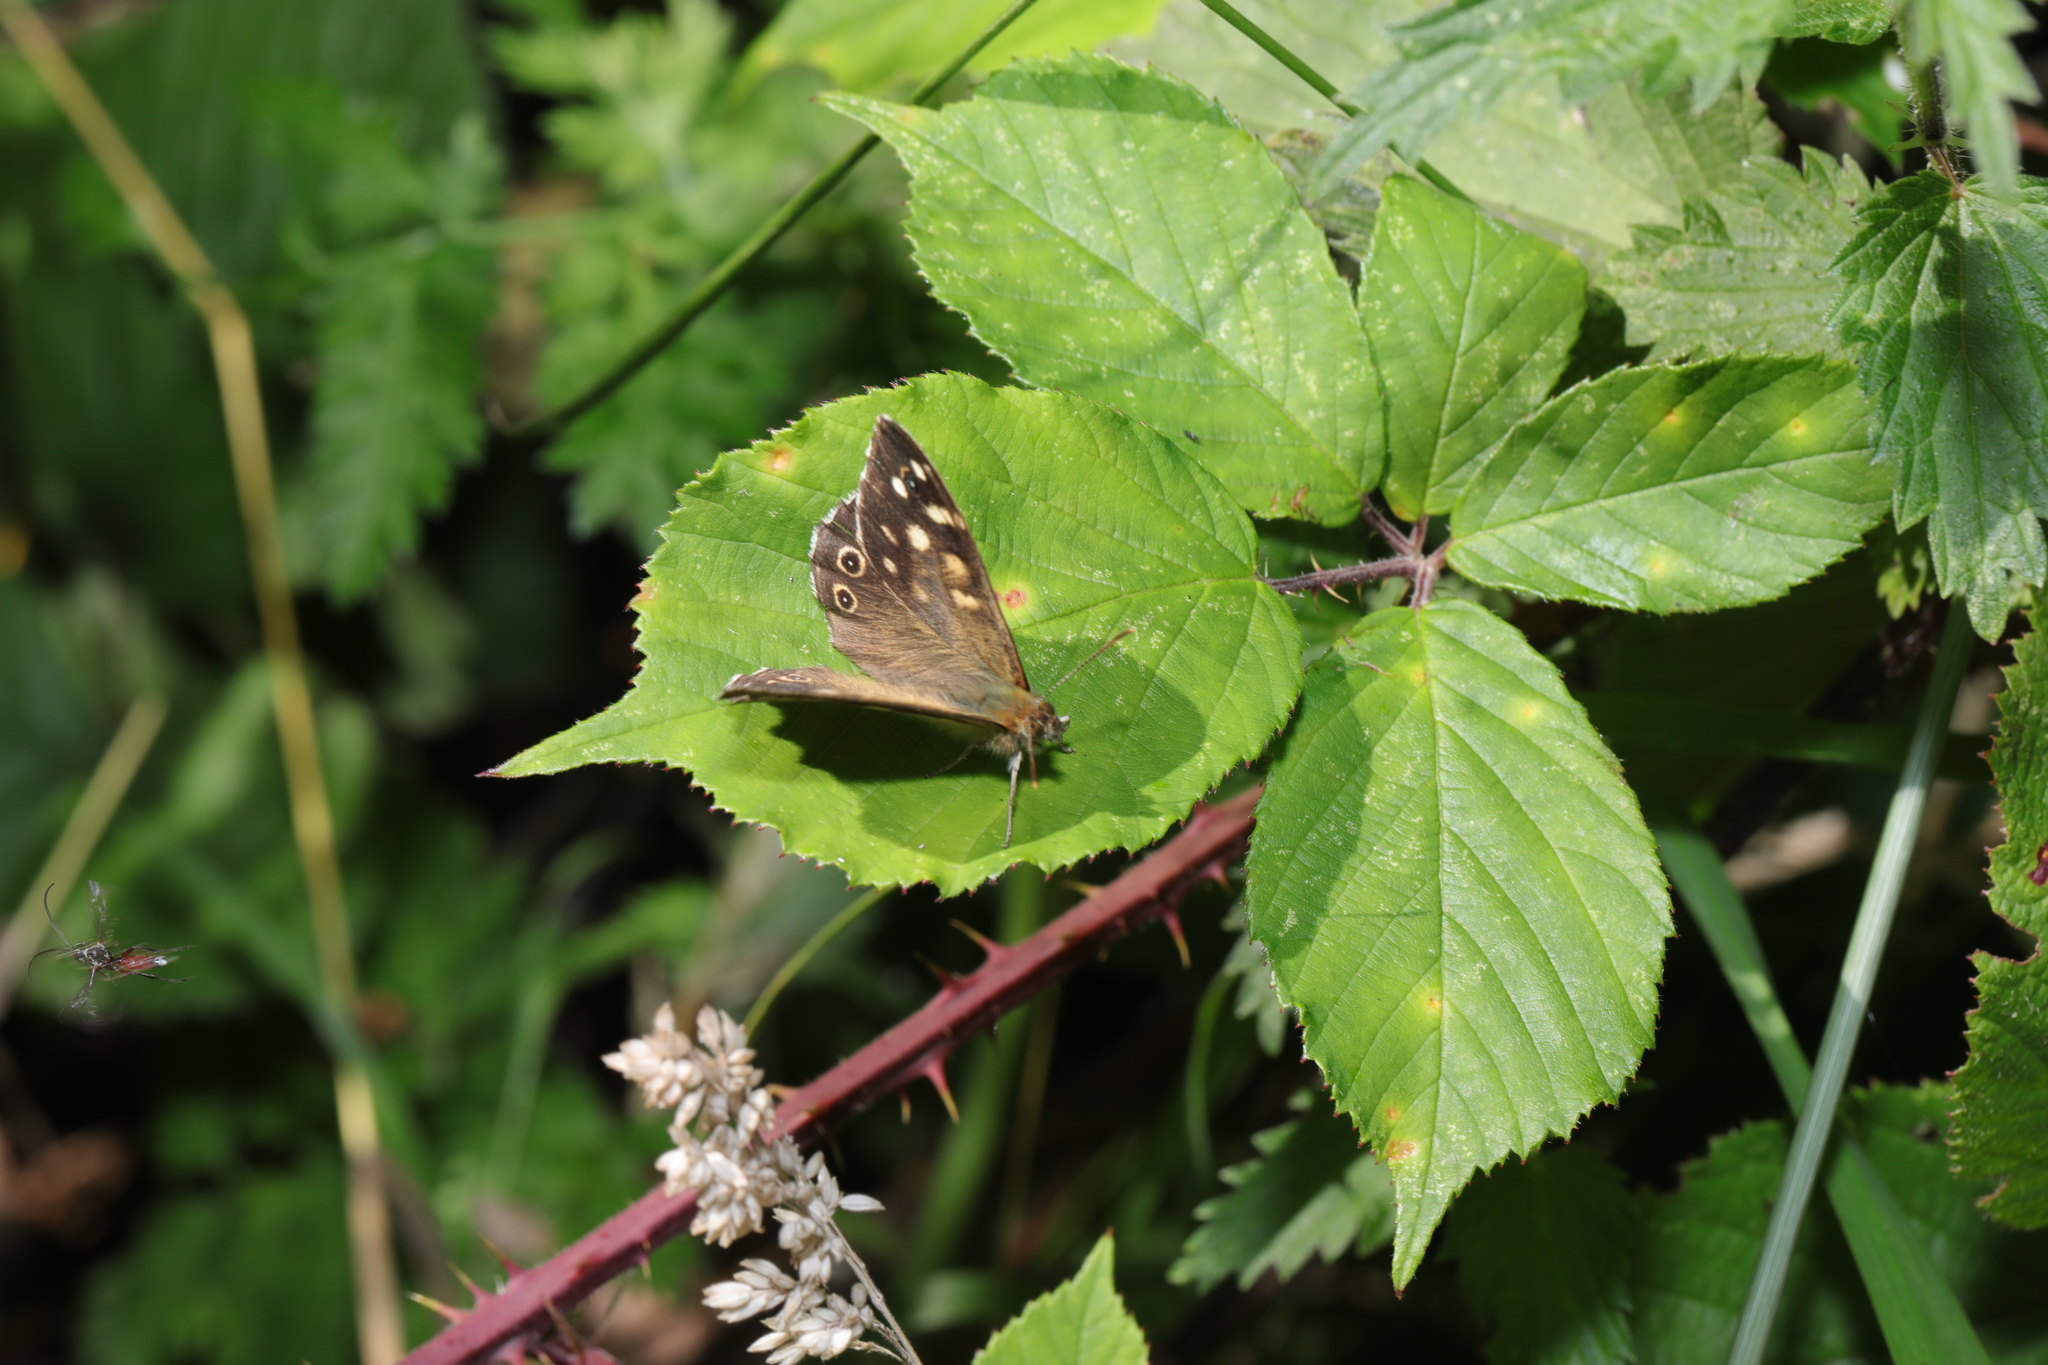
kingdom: Animalia
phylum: Arthropoda
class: Insecta
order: Lepidoptera
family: Nymphalidae
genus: Pararge
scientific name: Pararge aegeria
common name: Speckled wood
